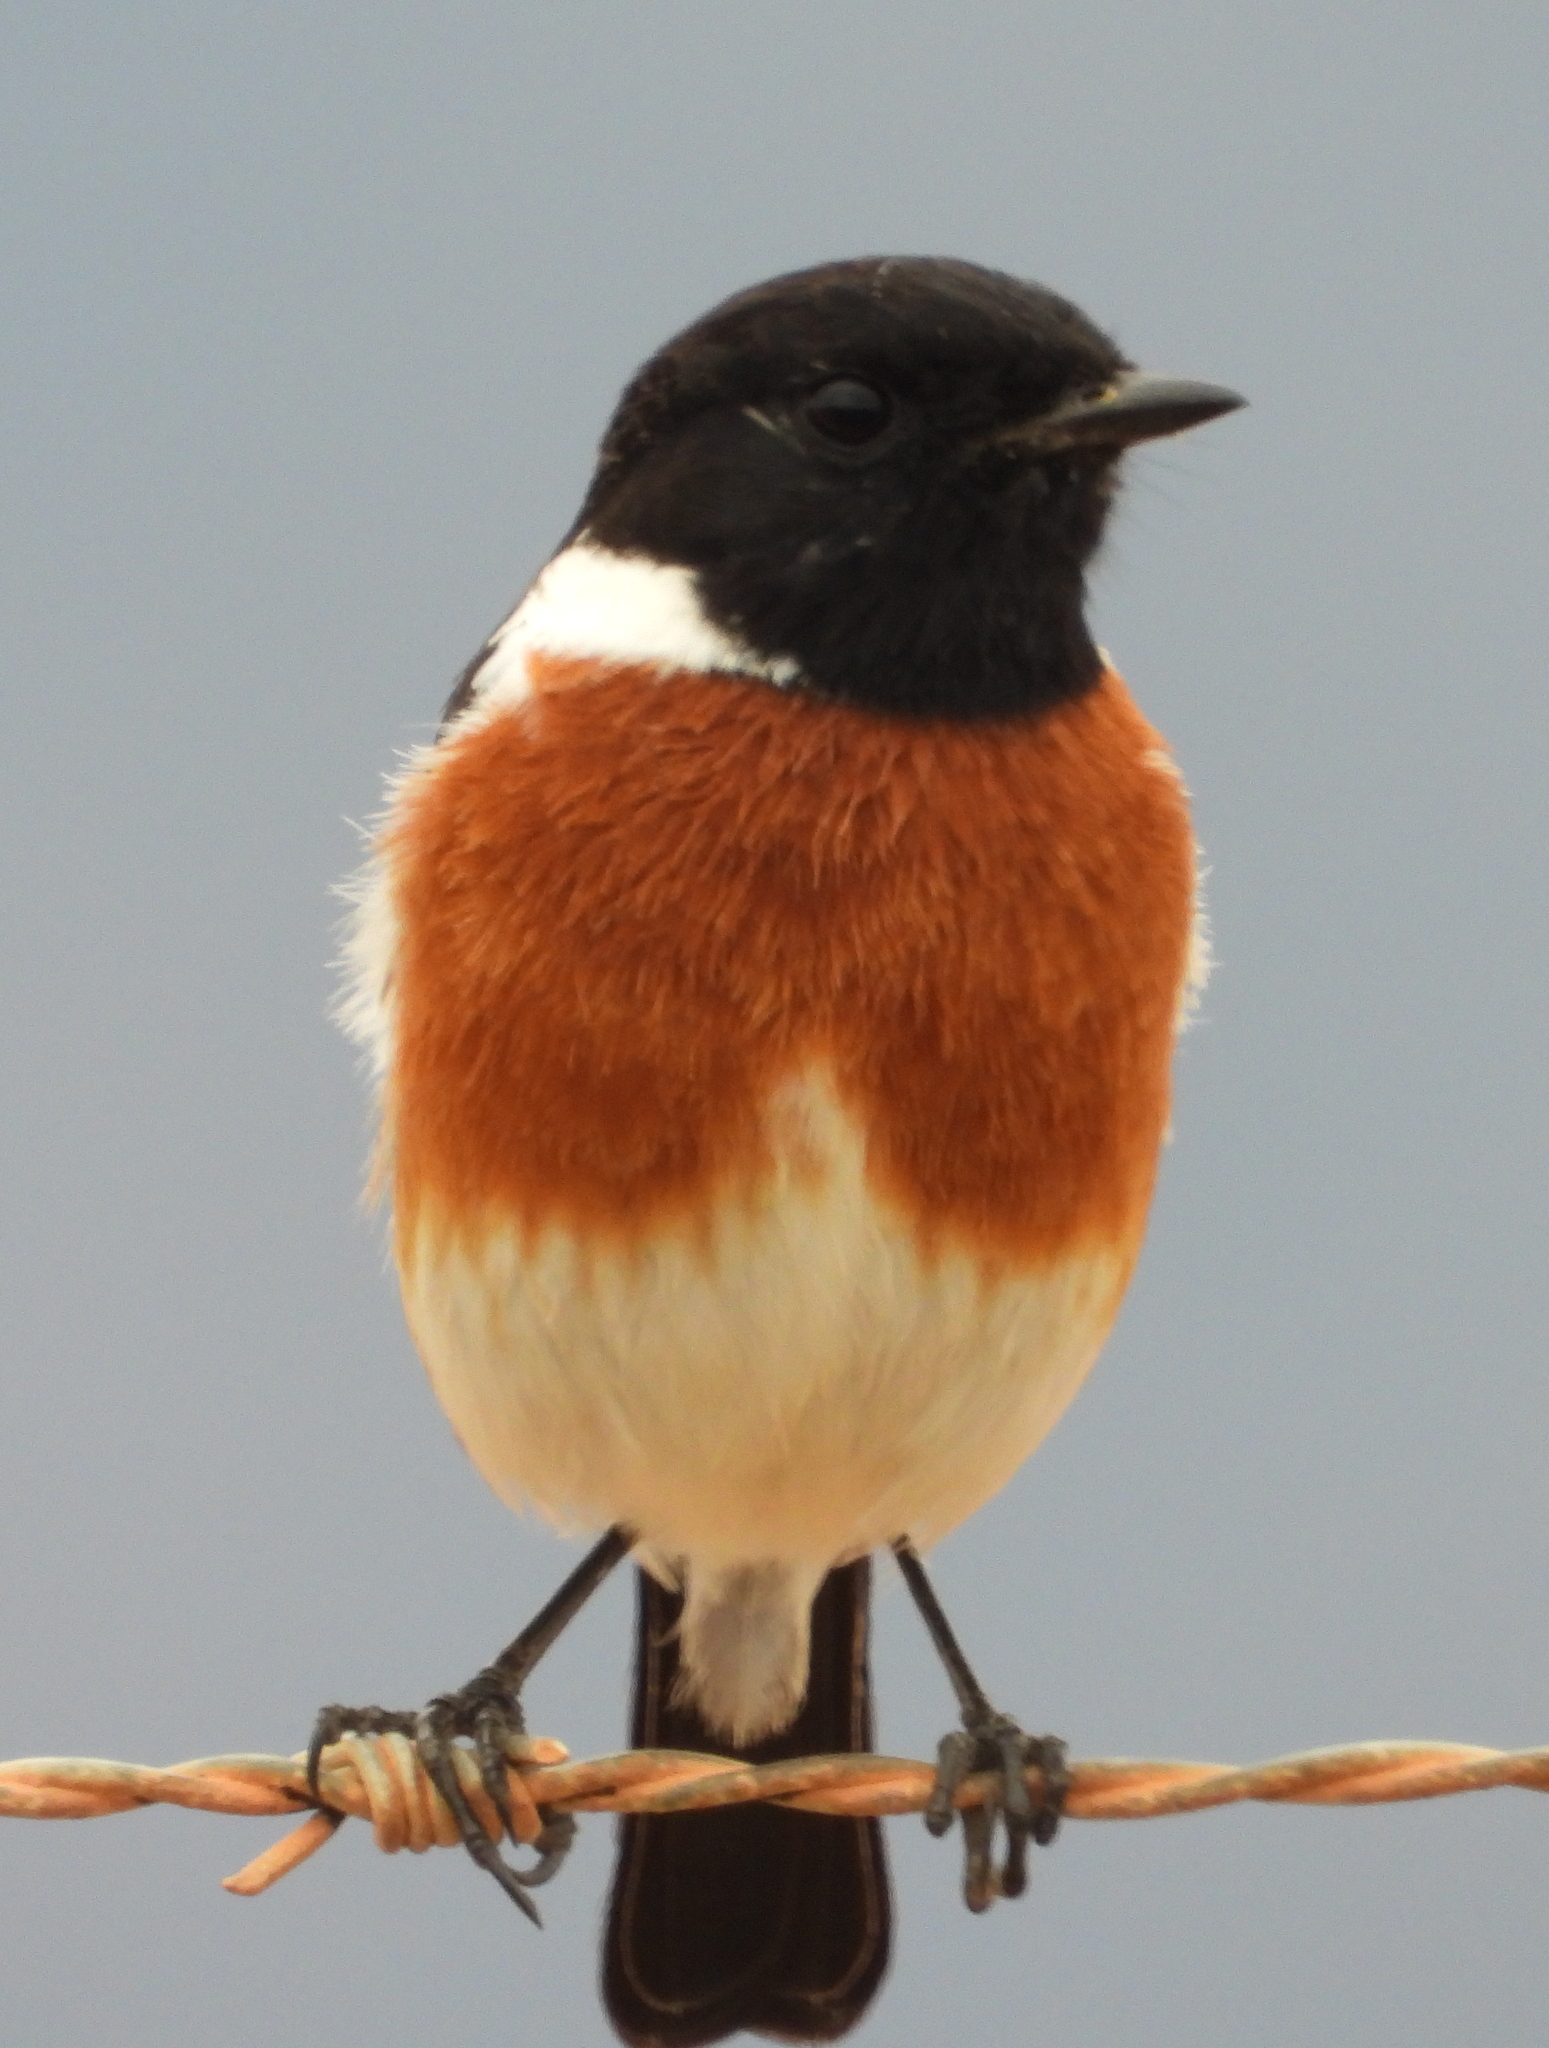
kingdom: Animalia
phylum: Chordata
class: Aves
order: Passeriformes
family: Muscicapidae
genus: Saxicola
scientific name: Saxicola torquatus
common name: African stonechat
